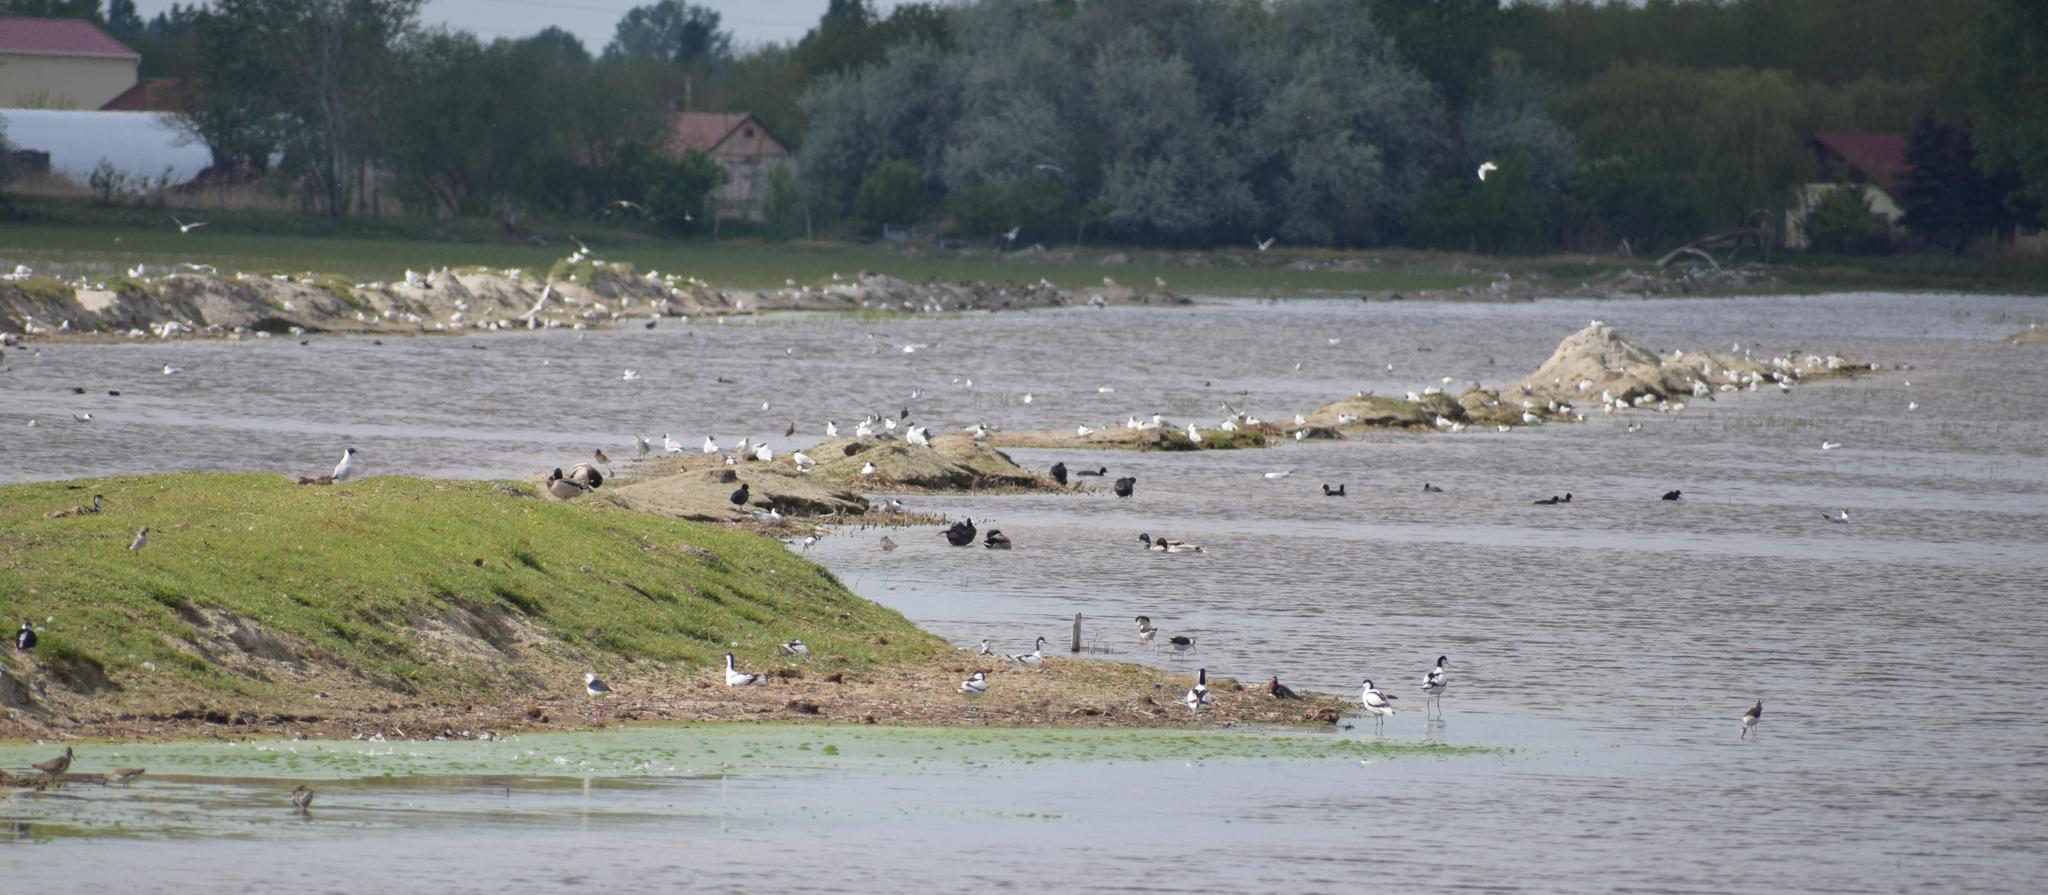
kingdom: Animalia
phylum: Chordata
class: Aves
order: Charadriiformes
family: Laridae
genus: Chroicocephalus
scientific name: Chroicocephalus ridibundus
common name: Black-headed gull
